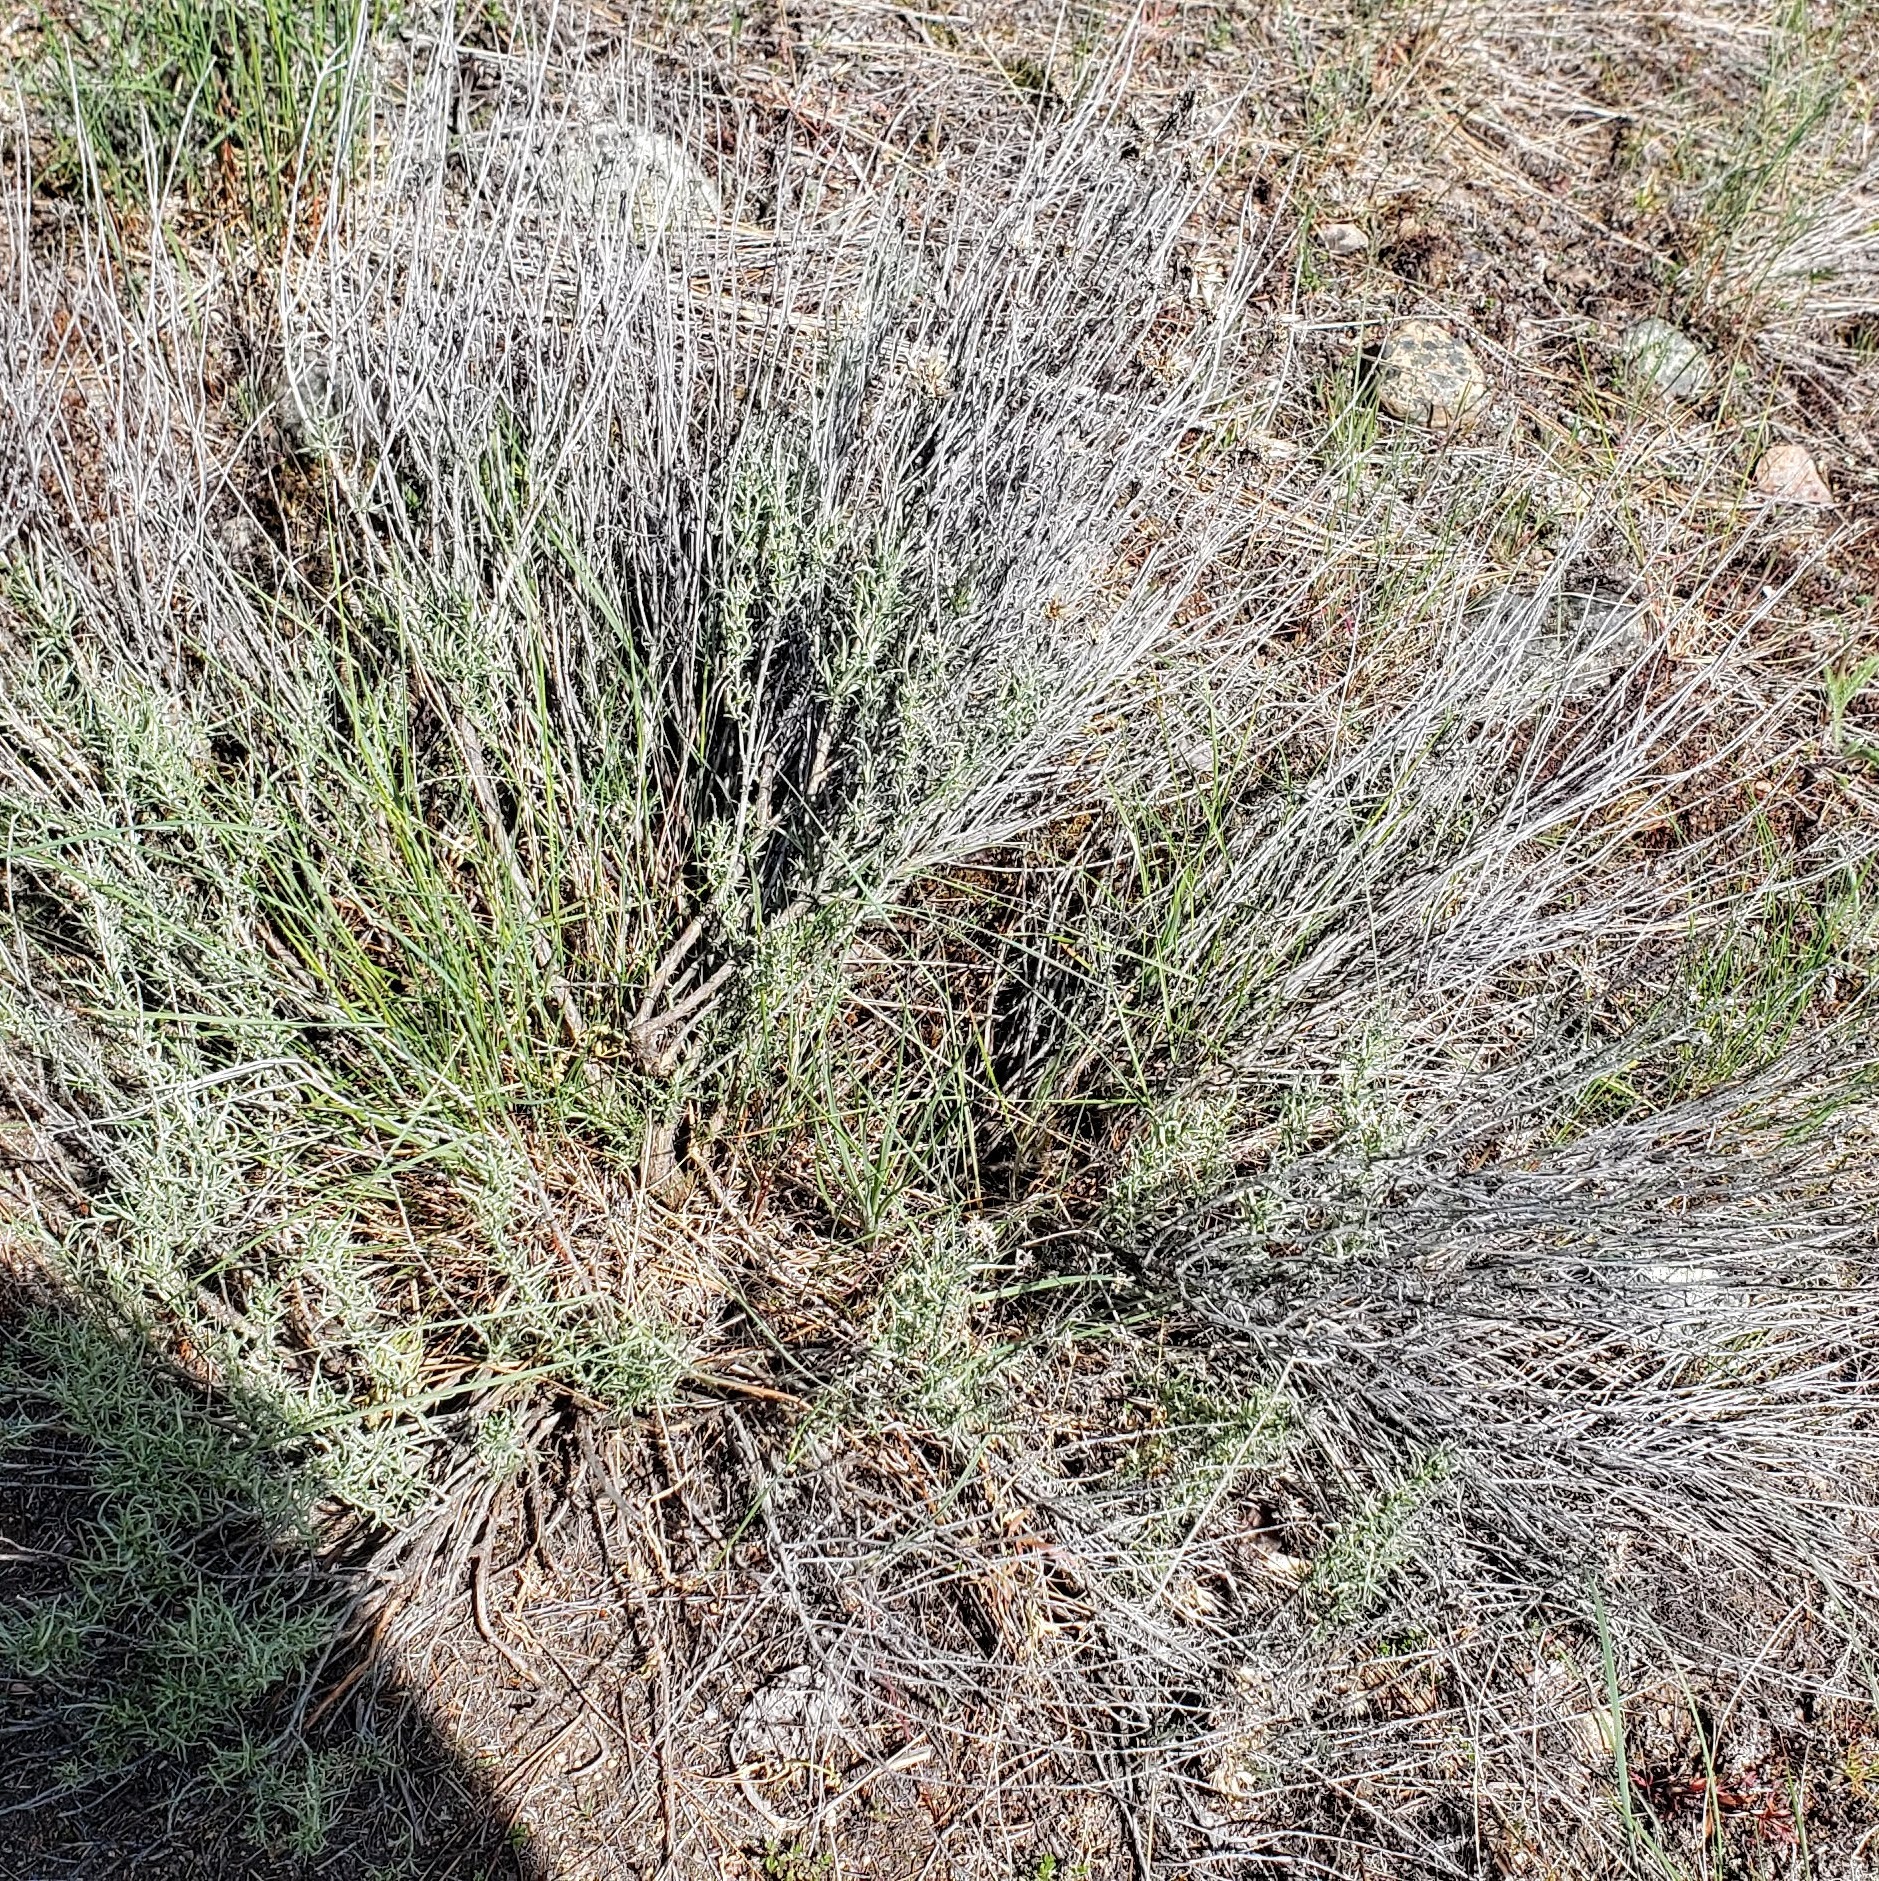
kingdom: Plantae
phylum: Tracheophyta
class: Magnoliopsida
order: Asterales
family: Asteraceae
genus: Ericameria
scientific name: Ericameria nauseosa
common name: Rubber rabbitbrush
